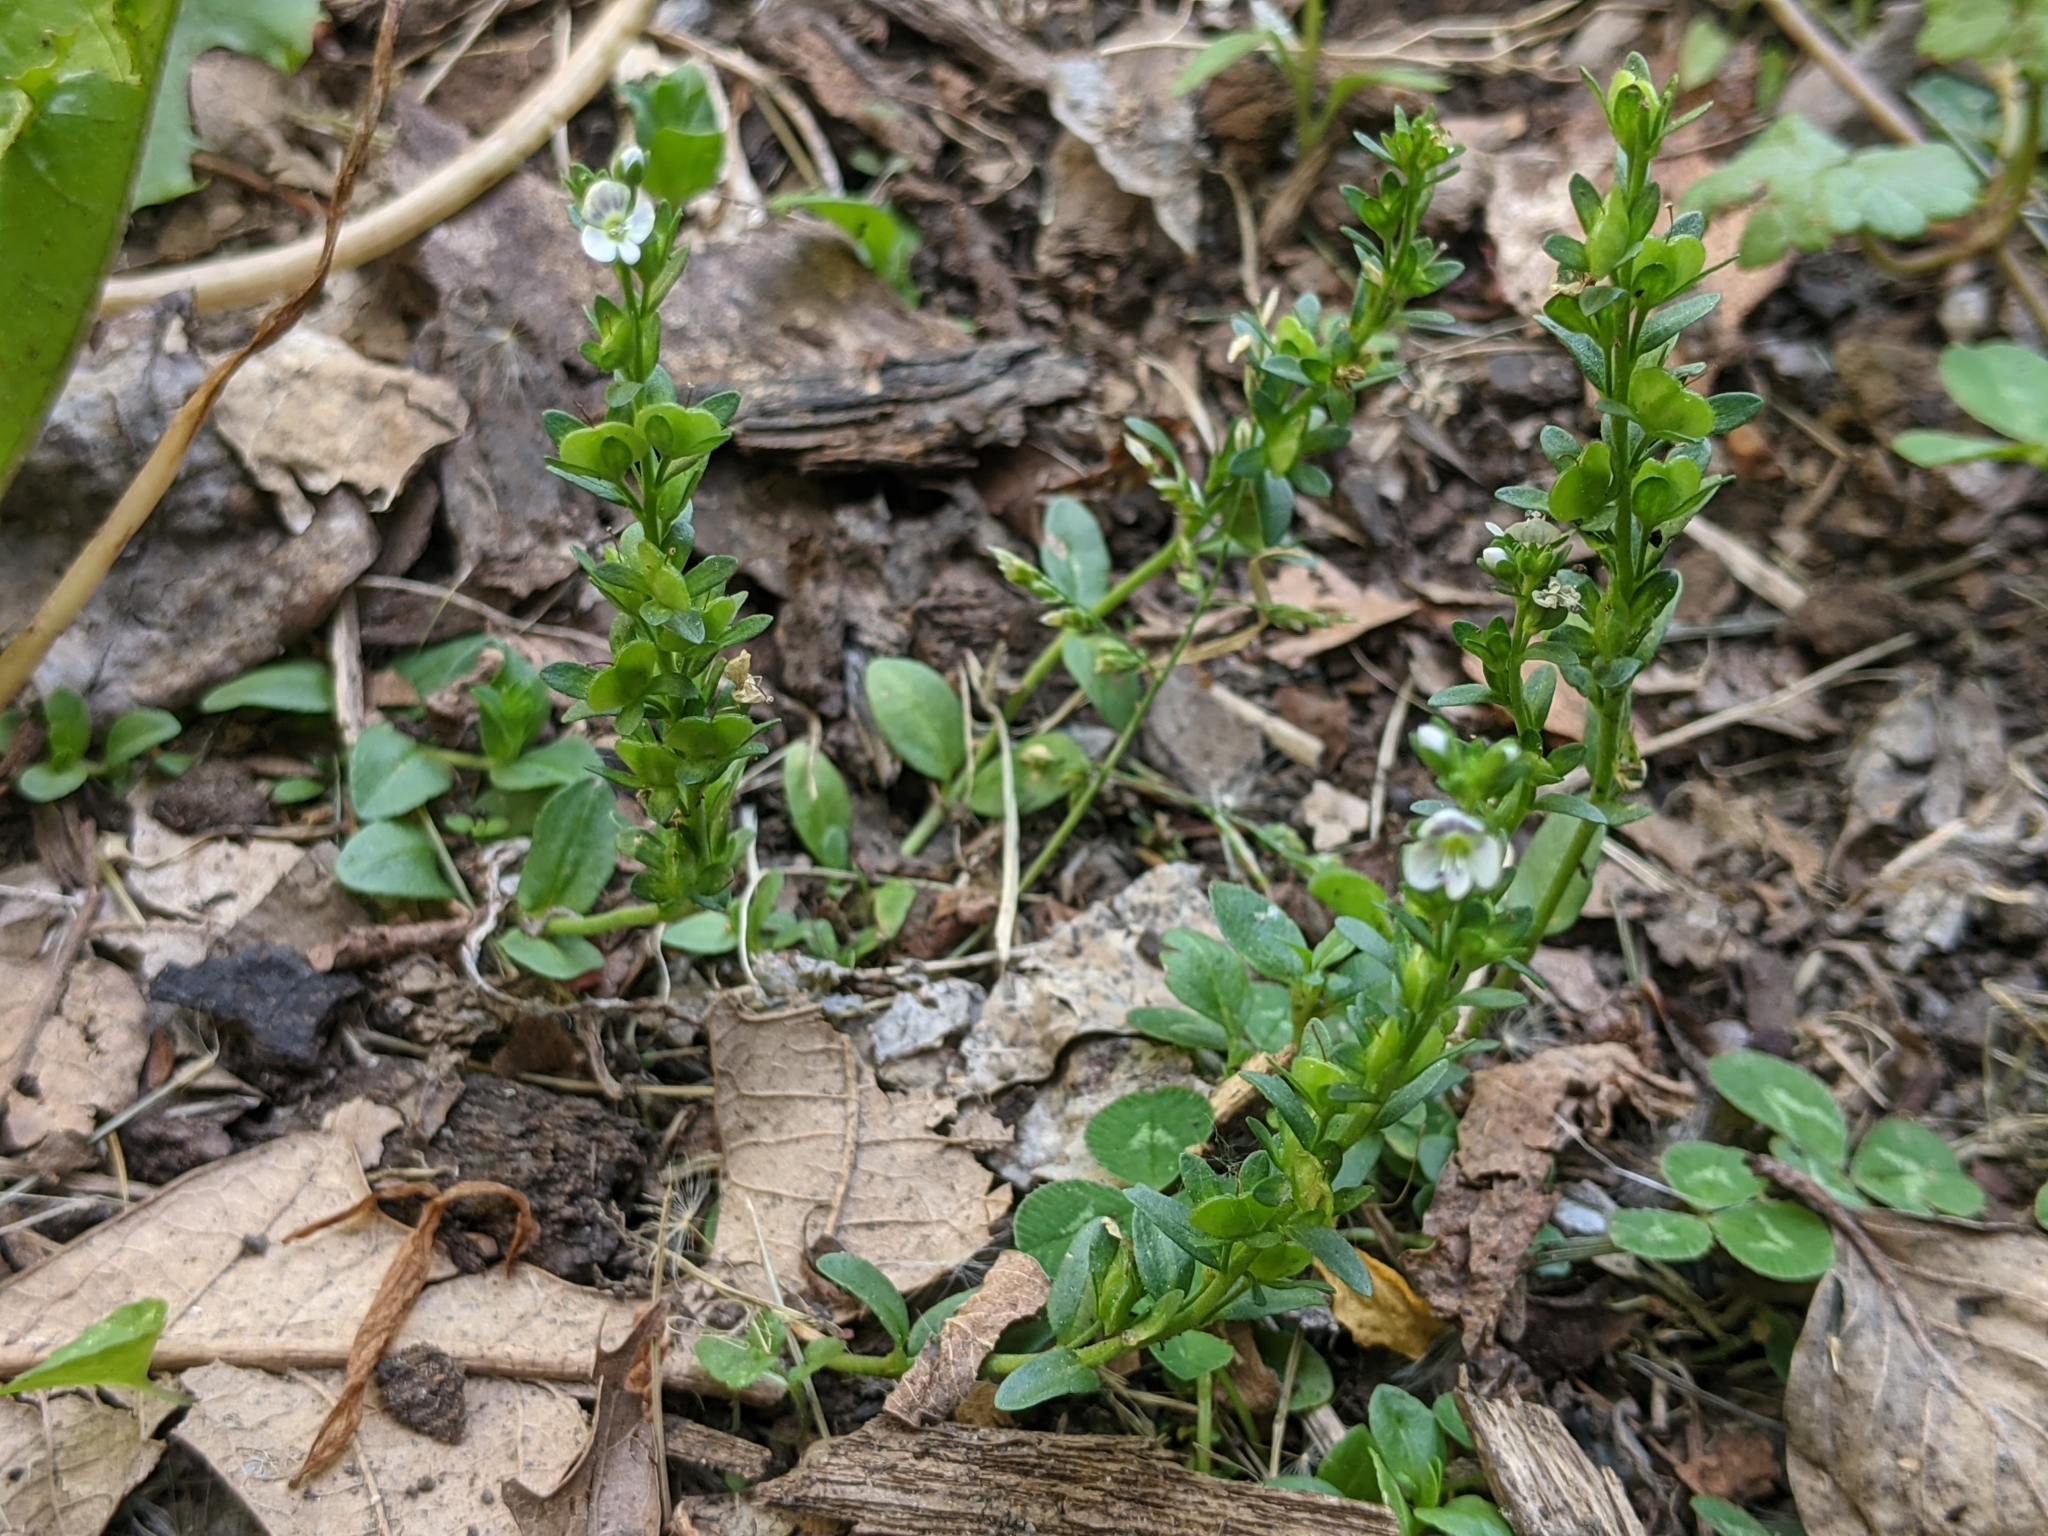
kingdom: Plantae
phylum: Tracheophyta
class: Magnoliopsida
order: Lamiales
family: Plantaginaceae
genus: Veronica
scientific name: Veronica serpyllifolia
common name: Thyme-leaved speedwell
